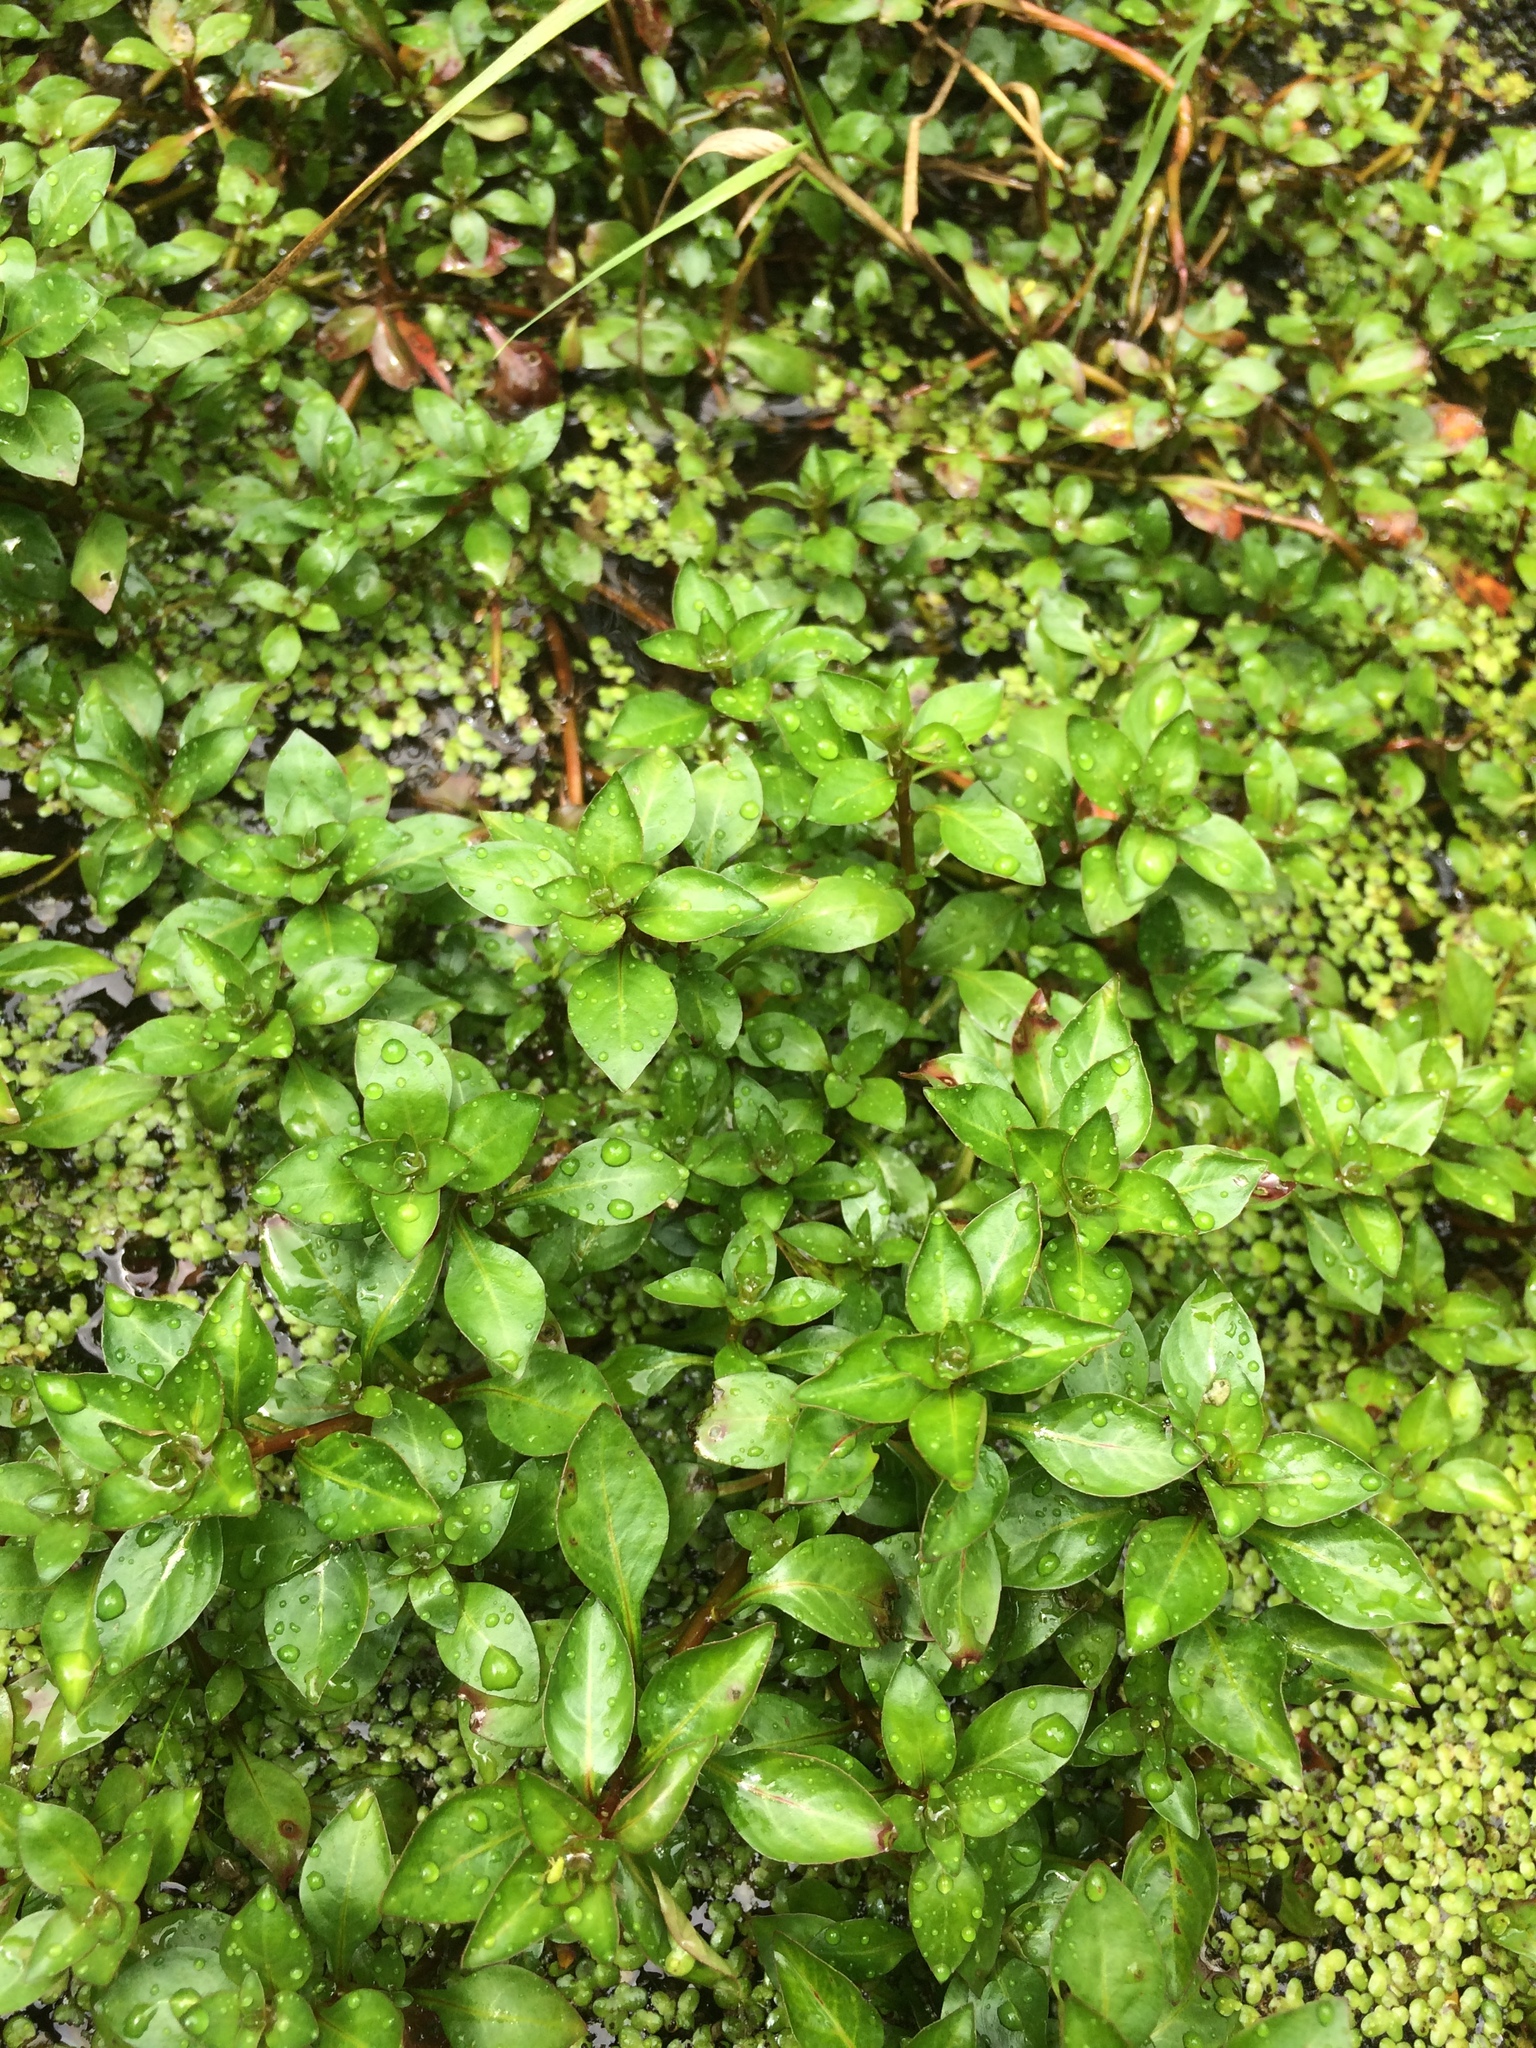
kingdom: Plantae
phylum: Tracheophyta
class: Magnoliopsida
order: Myrtales
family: Onagraceae
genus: Ludwigia
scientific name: Ludwigia palustris
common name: Hampshire-purslane
